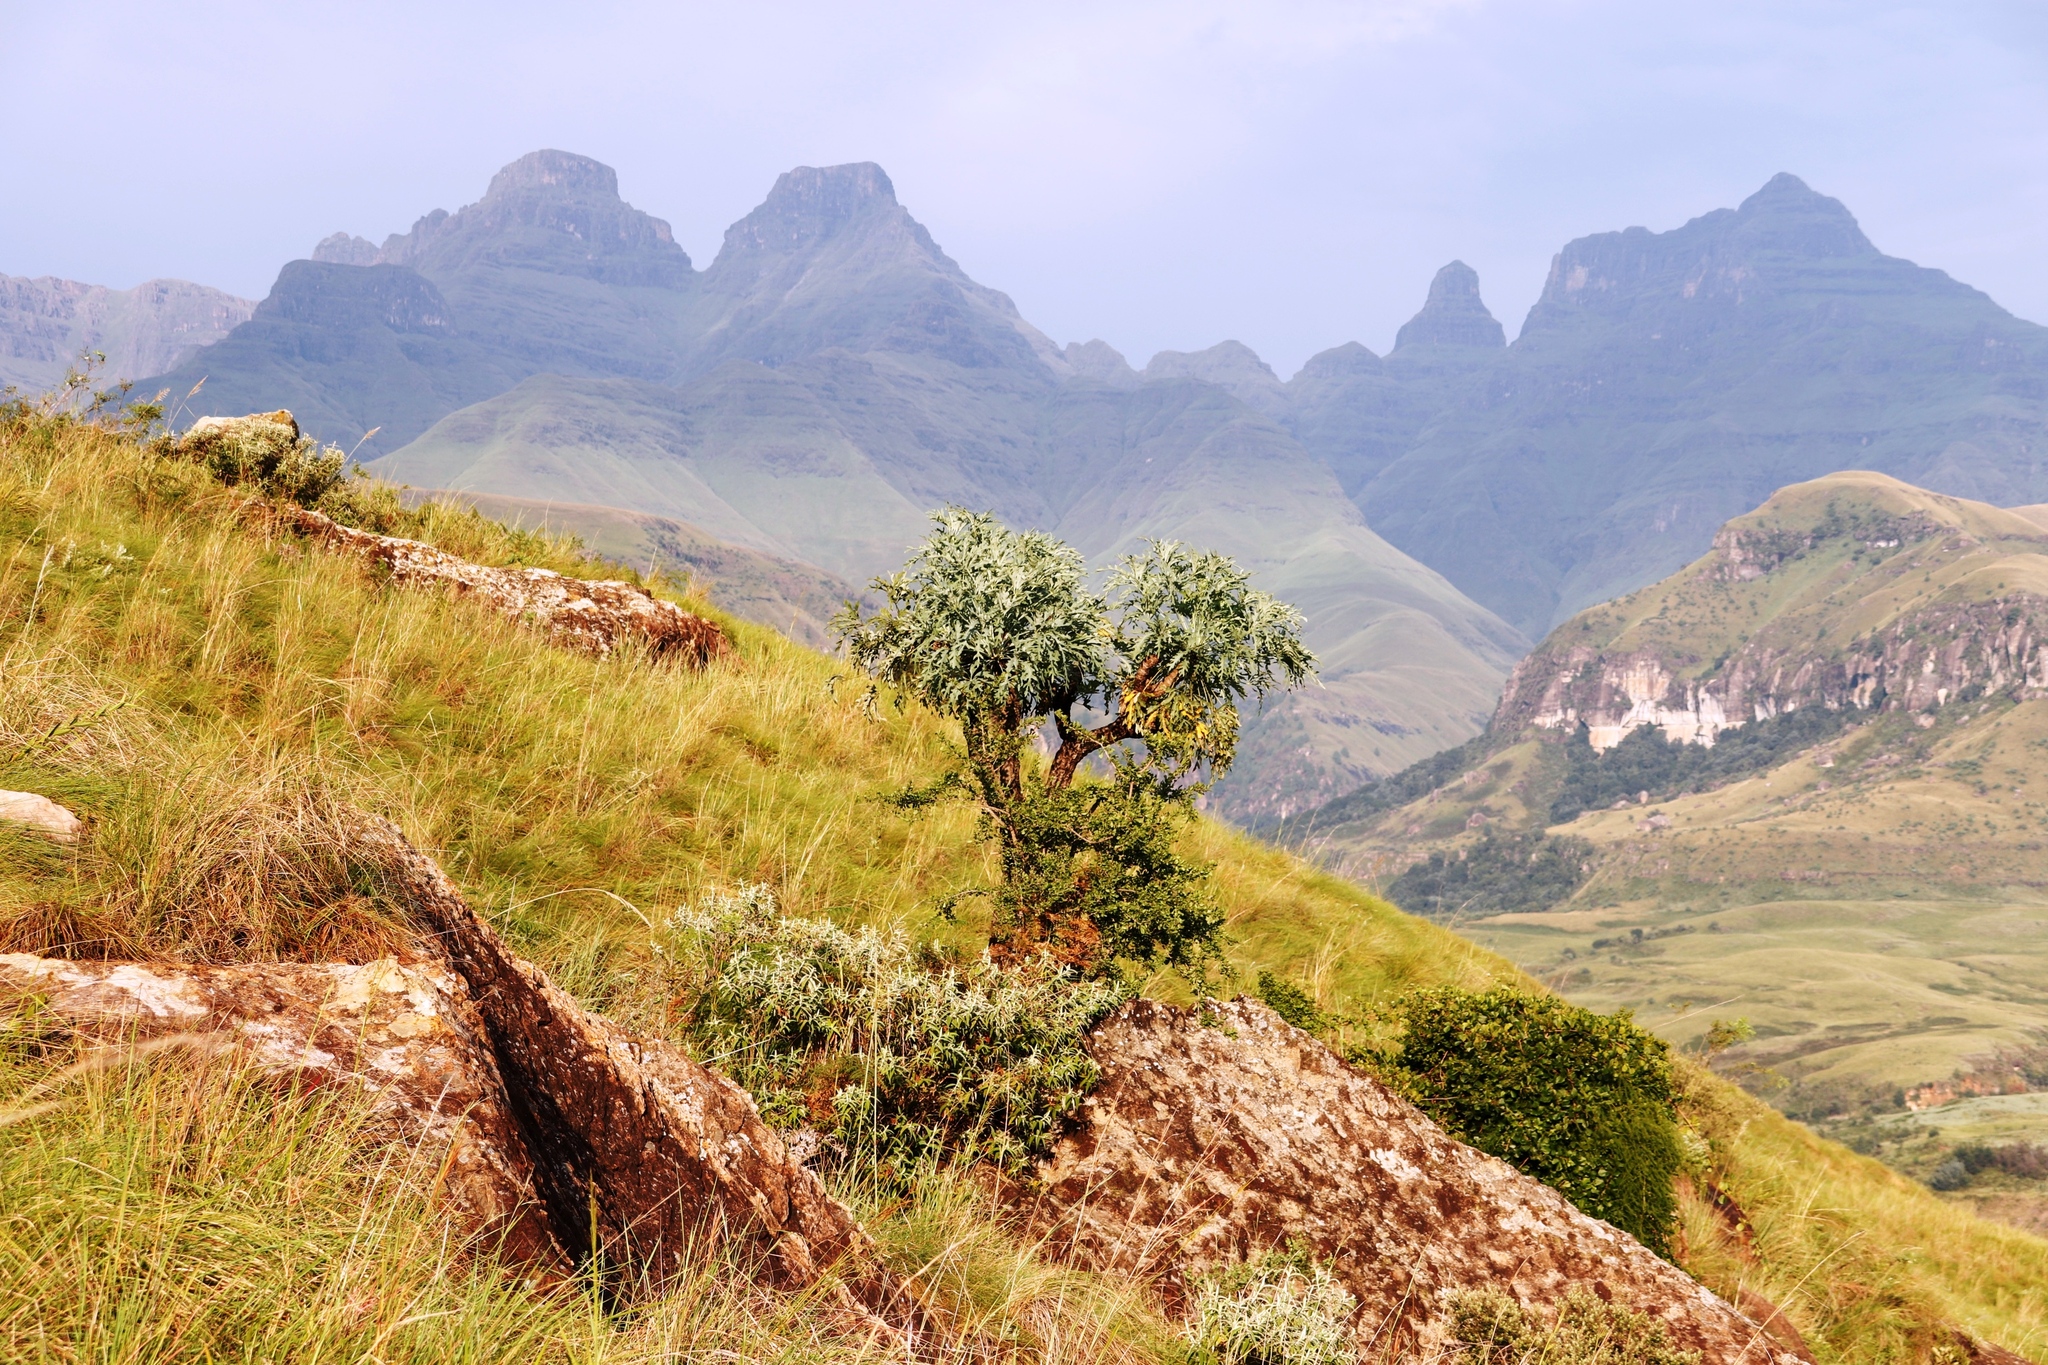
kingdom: Plantae
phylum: Tracheophyta
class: Magnoliopsida
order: Apiales
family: Araliaceae
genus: Cussonia
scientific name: Cussonia paniculata
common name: Cabbagetree
